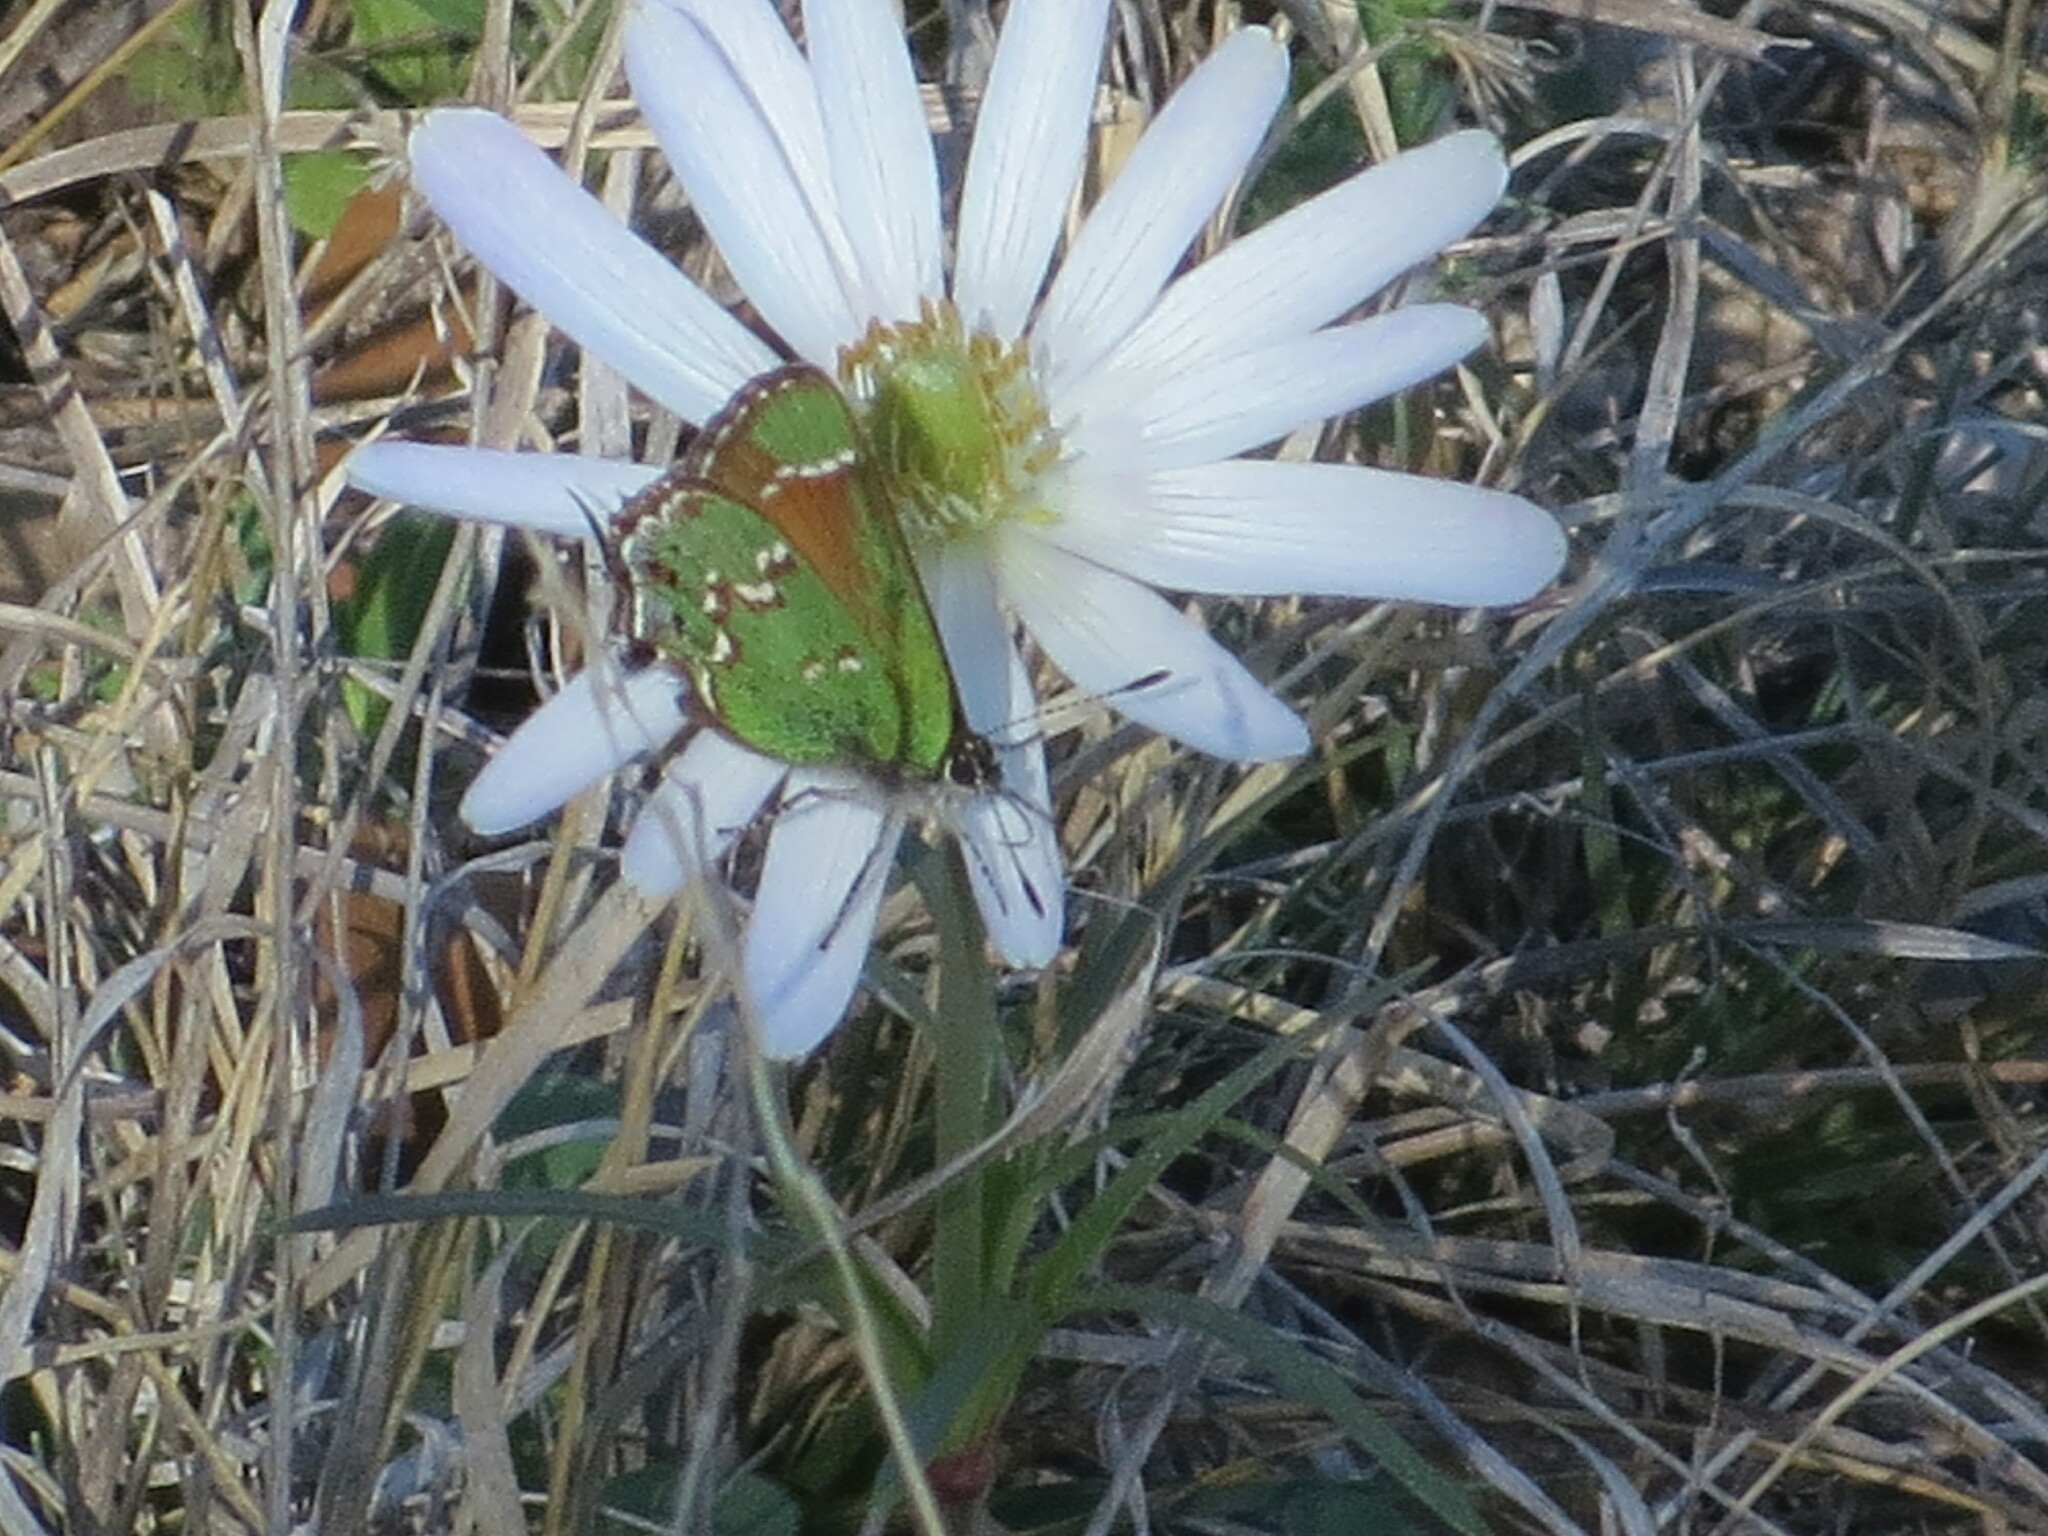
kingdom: Animalia
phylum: Arthropoda
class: Insecta
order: Lepidoptera
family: Lycaenidae
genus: Mitoura
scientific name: Mitoura gryneus
